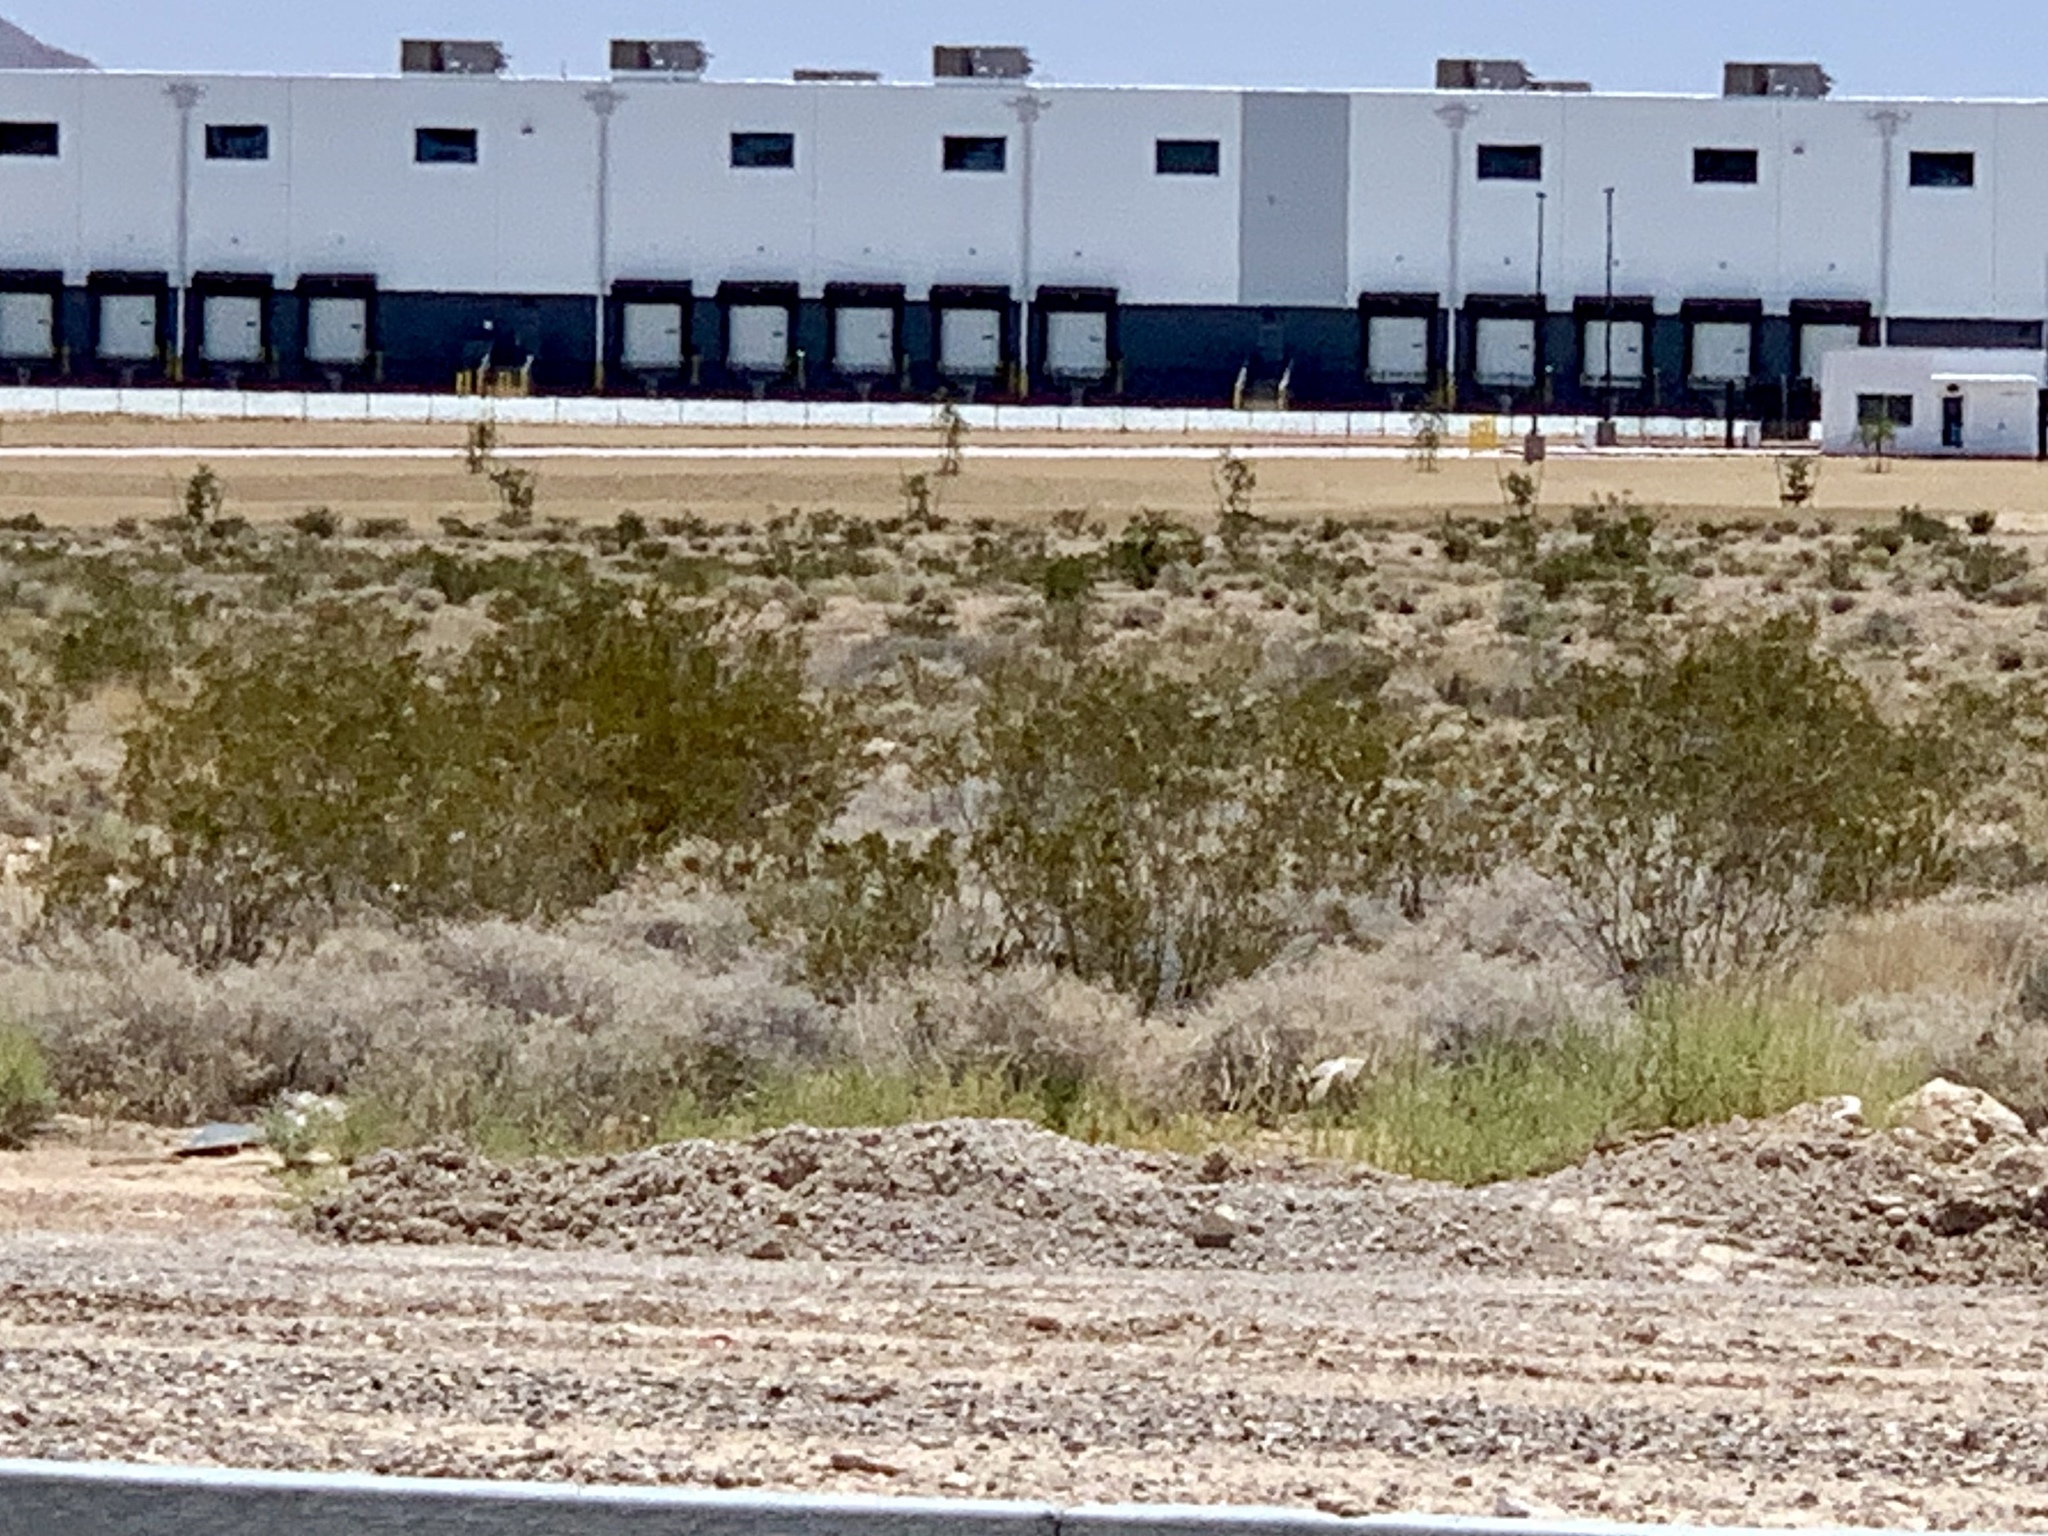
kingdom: Plantae
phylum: Tracheophyta
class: Magnoliopsida
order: Zygophyllales
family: Zygophyllaceae
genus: Larrea
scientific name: Larrea tridentata
